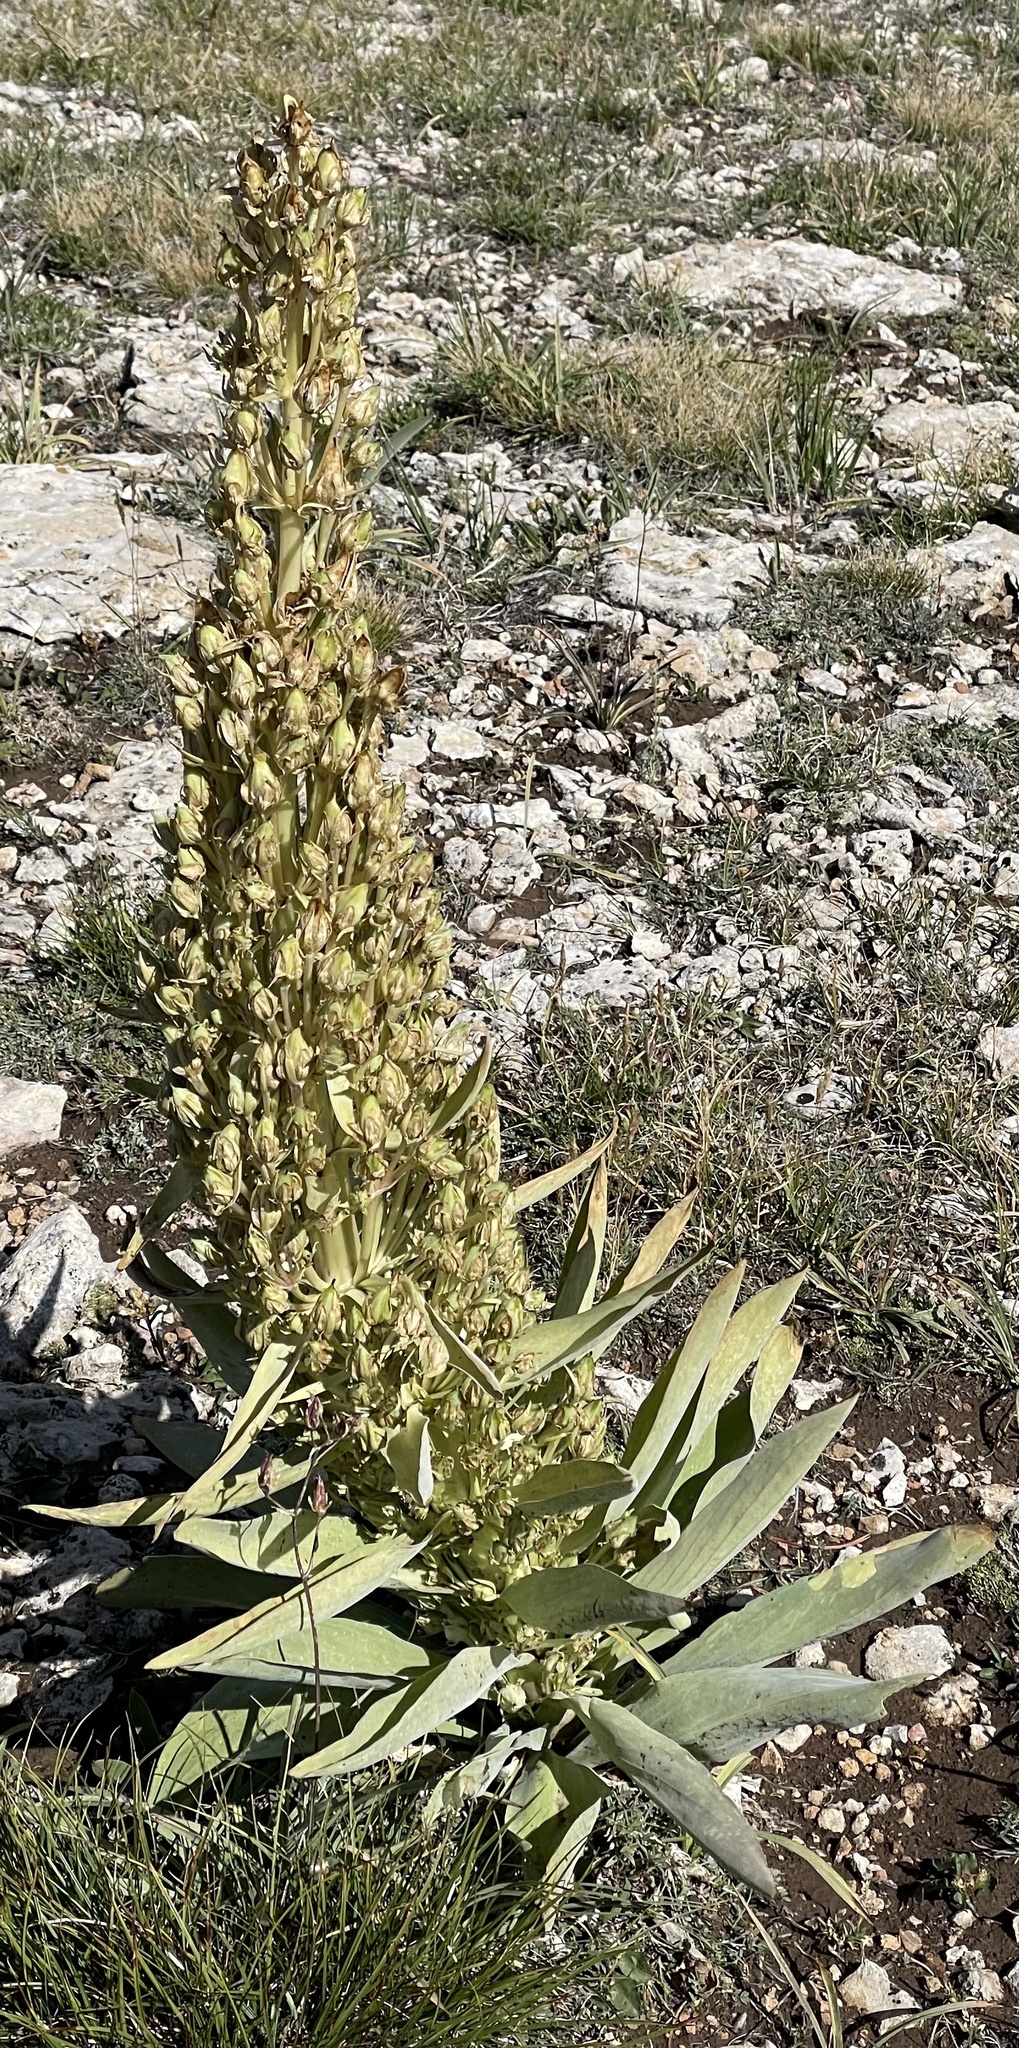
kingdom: Plantae
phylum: Tracheophyta
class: Magnoliopsida
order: Gentianales
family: Gentianaceae
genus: Frasera
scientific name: Frasera speciosa
